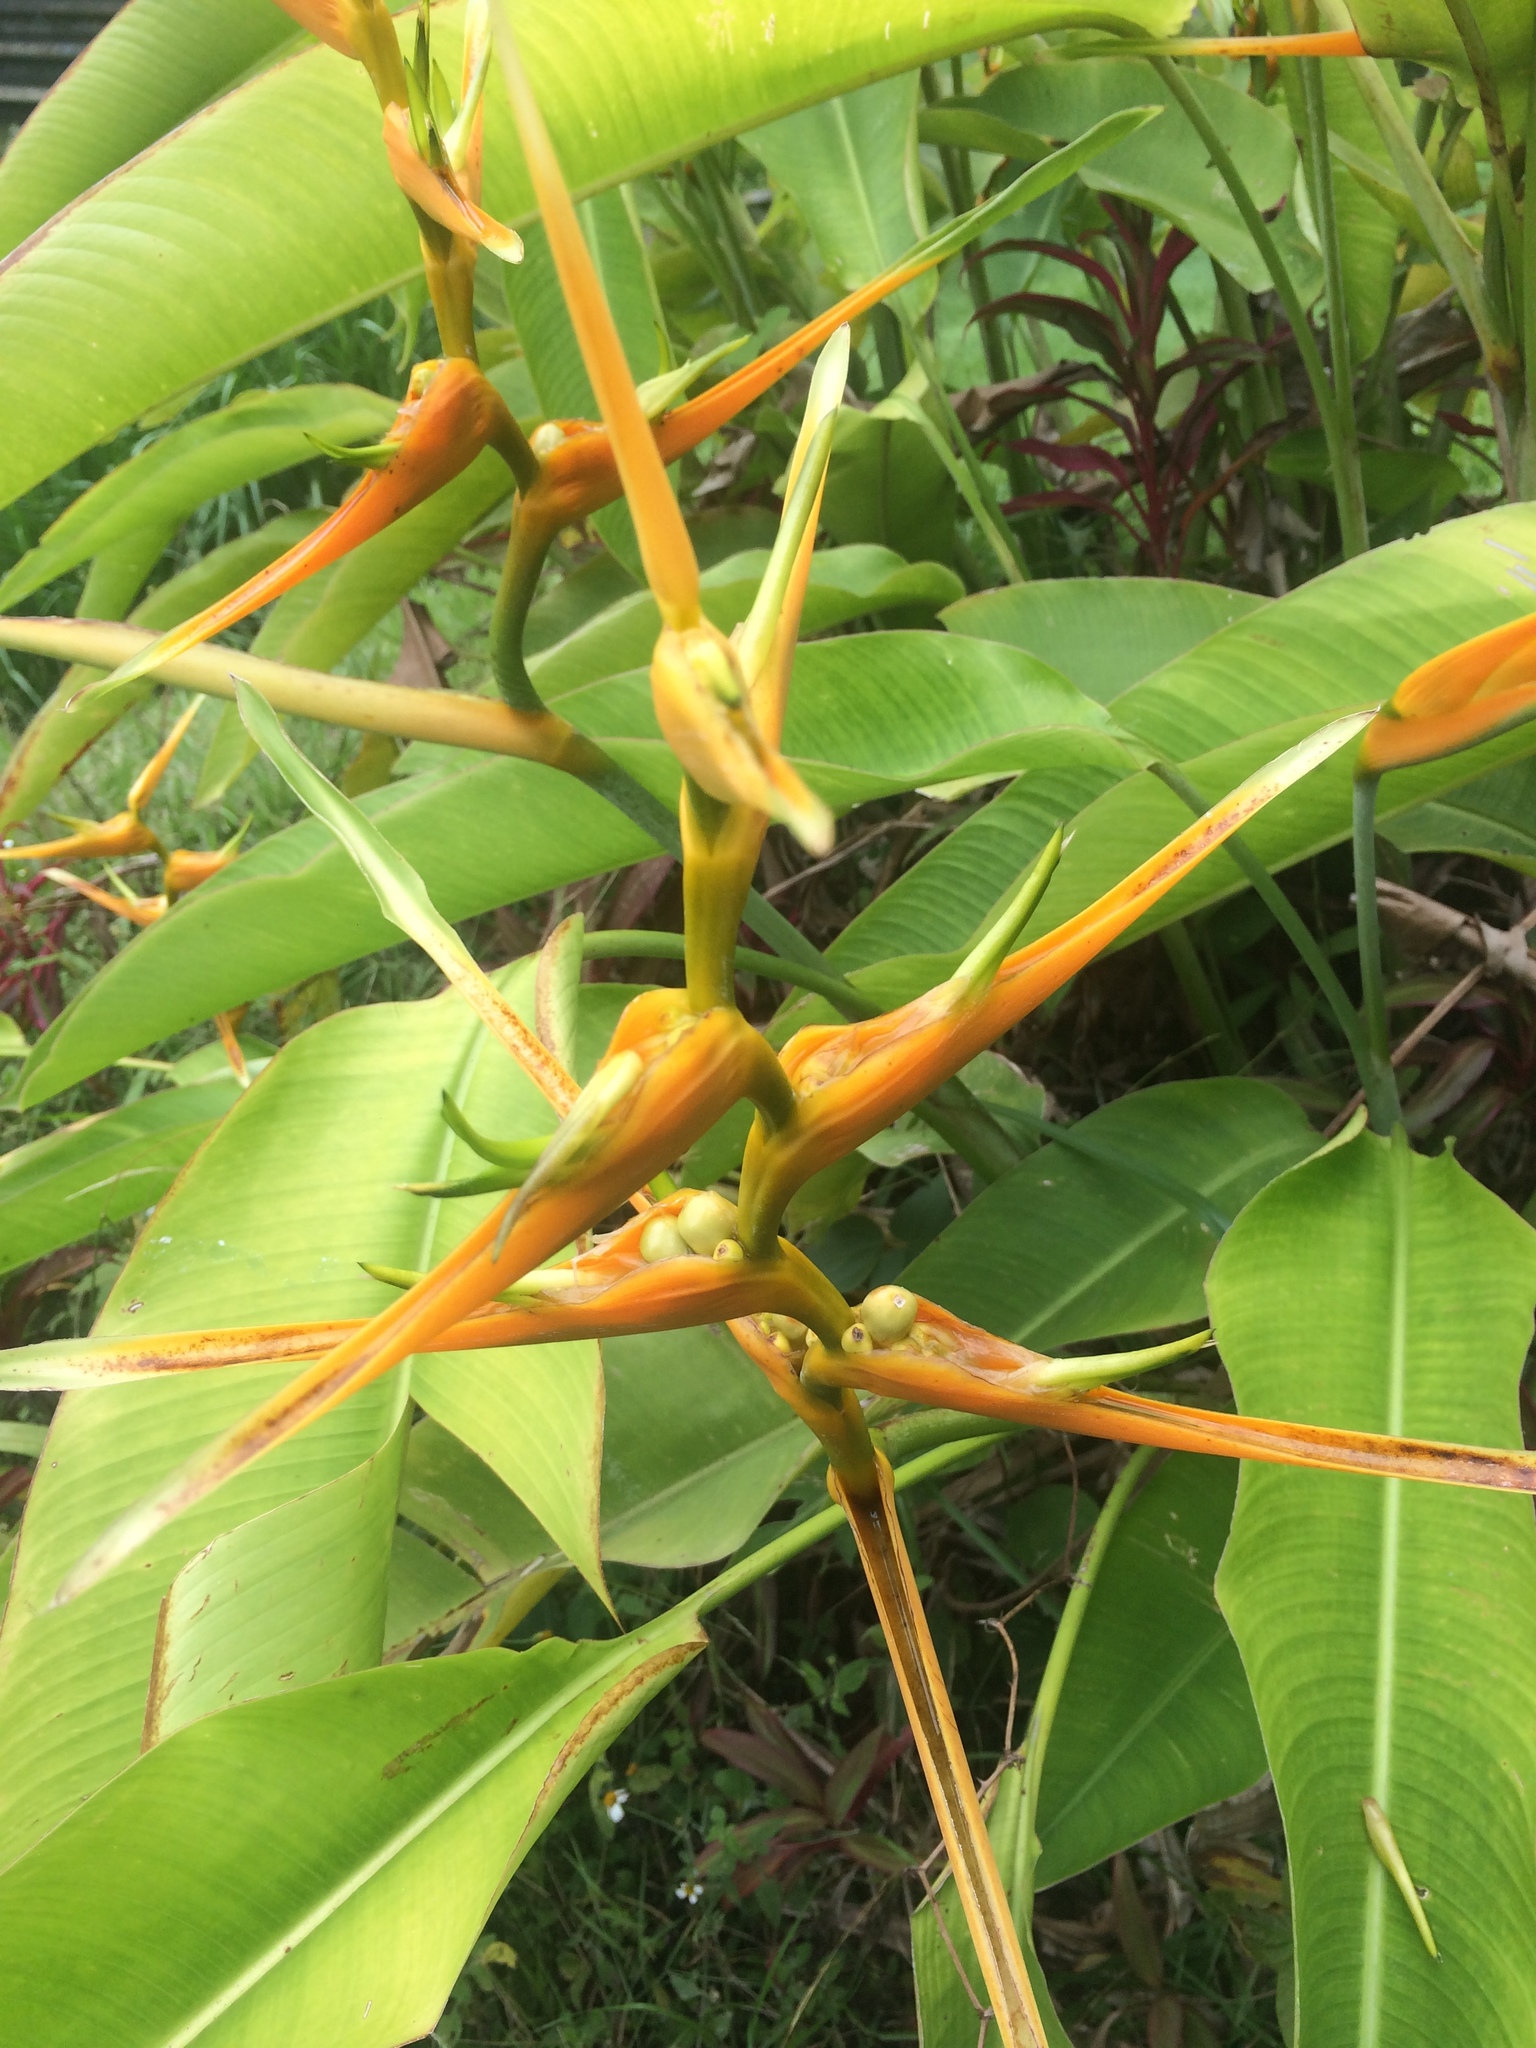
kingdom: Plantae
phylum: Tracheophyta
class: Liliopsida
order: Zingiberales
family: Heliconiaceae
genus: Heliconia
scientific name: Heliconia latispatha
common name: Expanded lobsterclaw
